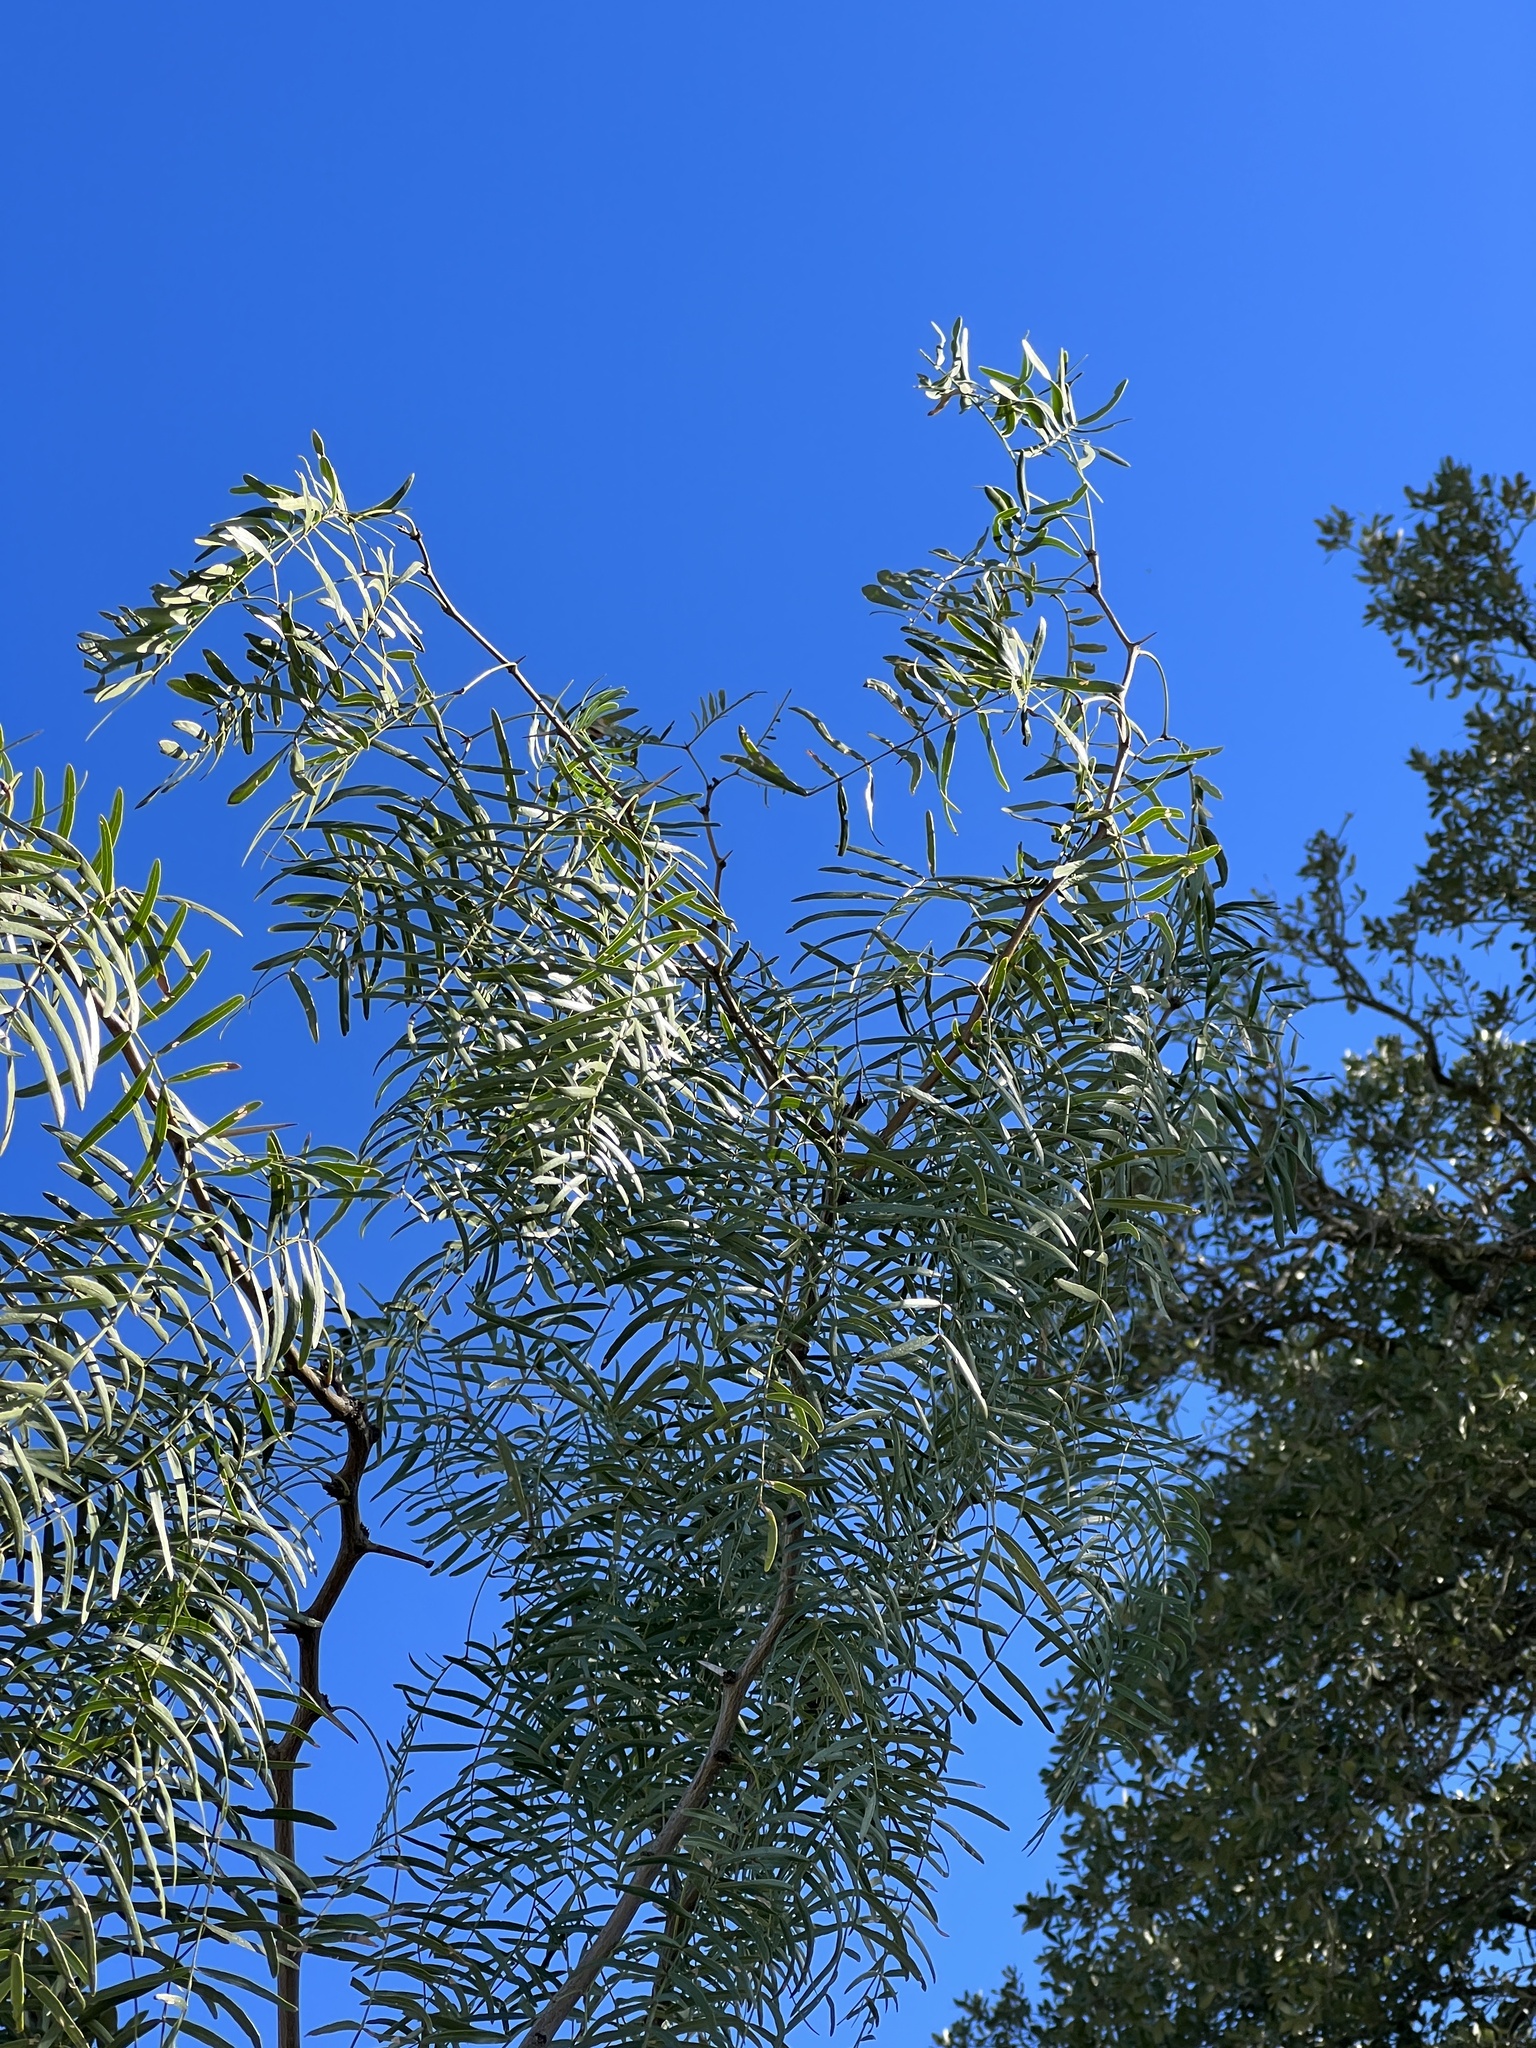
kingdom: Plantae
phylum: Tracheophyta
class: Magnoliopsida
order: Fabales
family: Fabaceae
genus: Prosopis
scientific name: Prosopis glandulosa
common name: Honey mesquite
